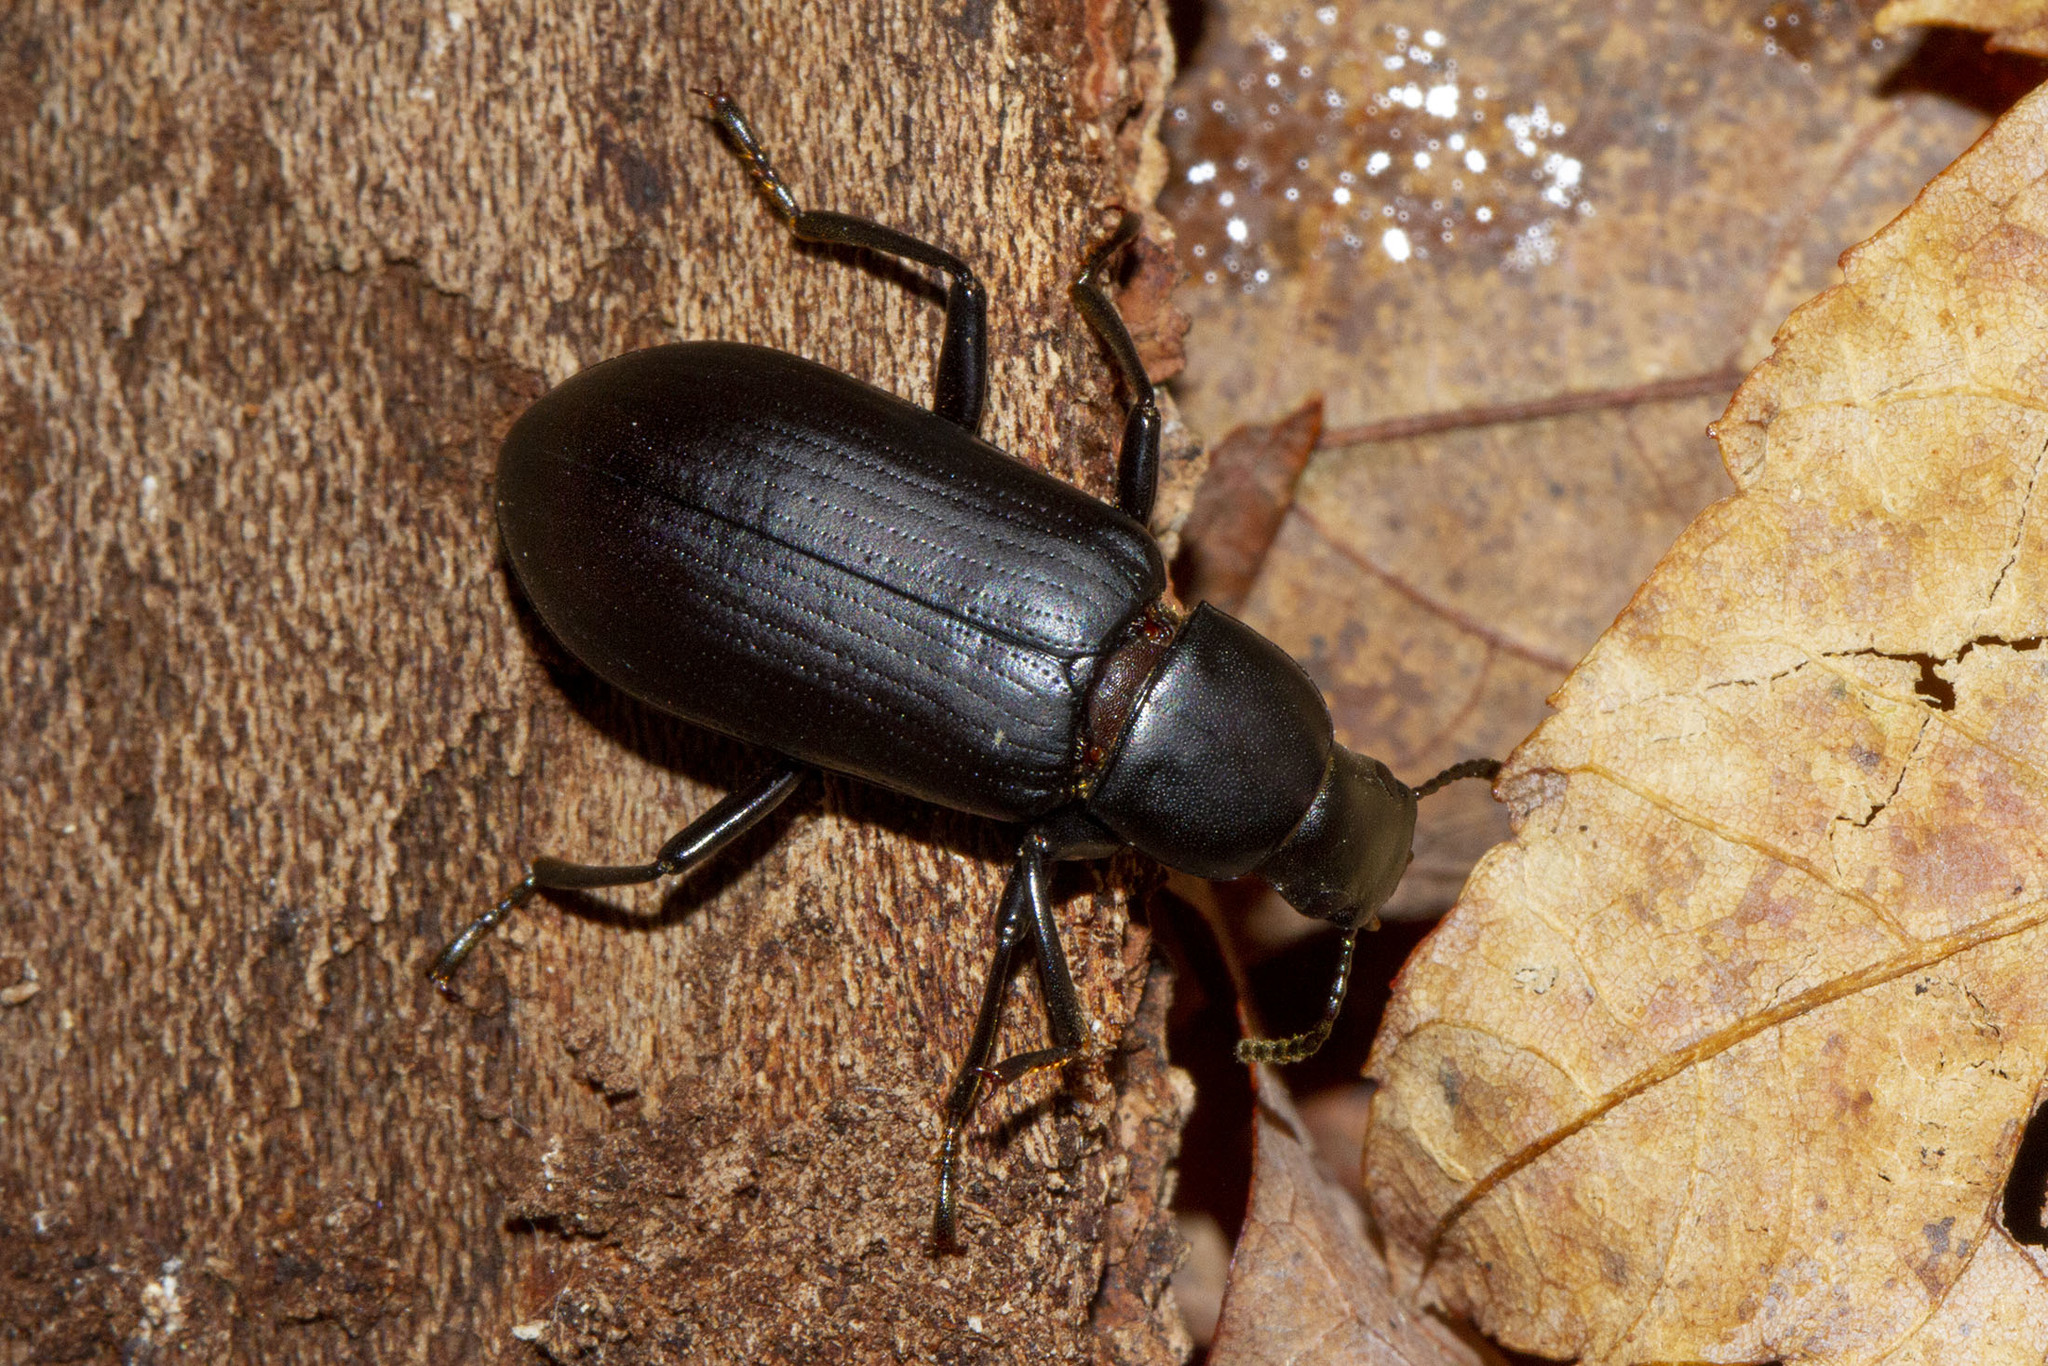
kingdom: Animalia
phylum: Arthropoda
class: Insecta
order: Coleoptera
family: Tenebrionidae
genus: Alobates
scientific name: Alobates pensylvanicus
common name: False mealworm beetle
